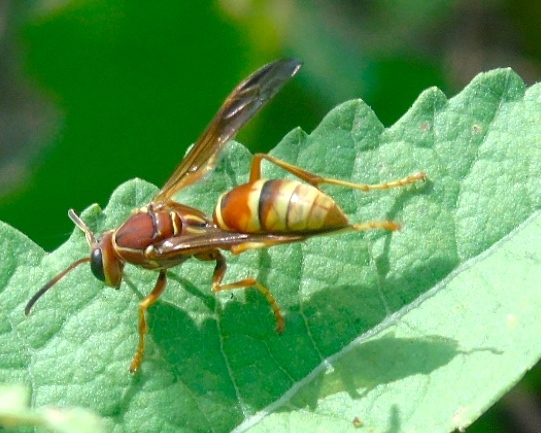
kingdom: Animalia
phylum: Arthropoda
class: Insecta
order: Hymenoptera
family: Eumenidae
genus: Polistes
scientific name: Polistes dorsalis
